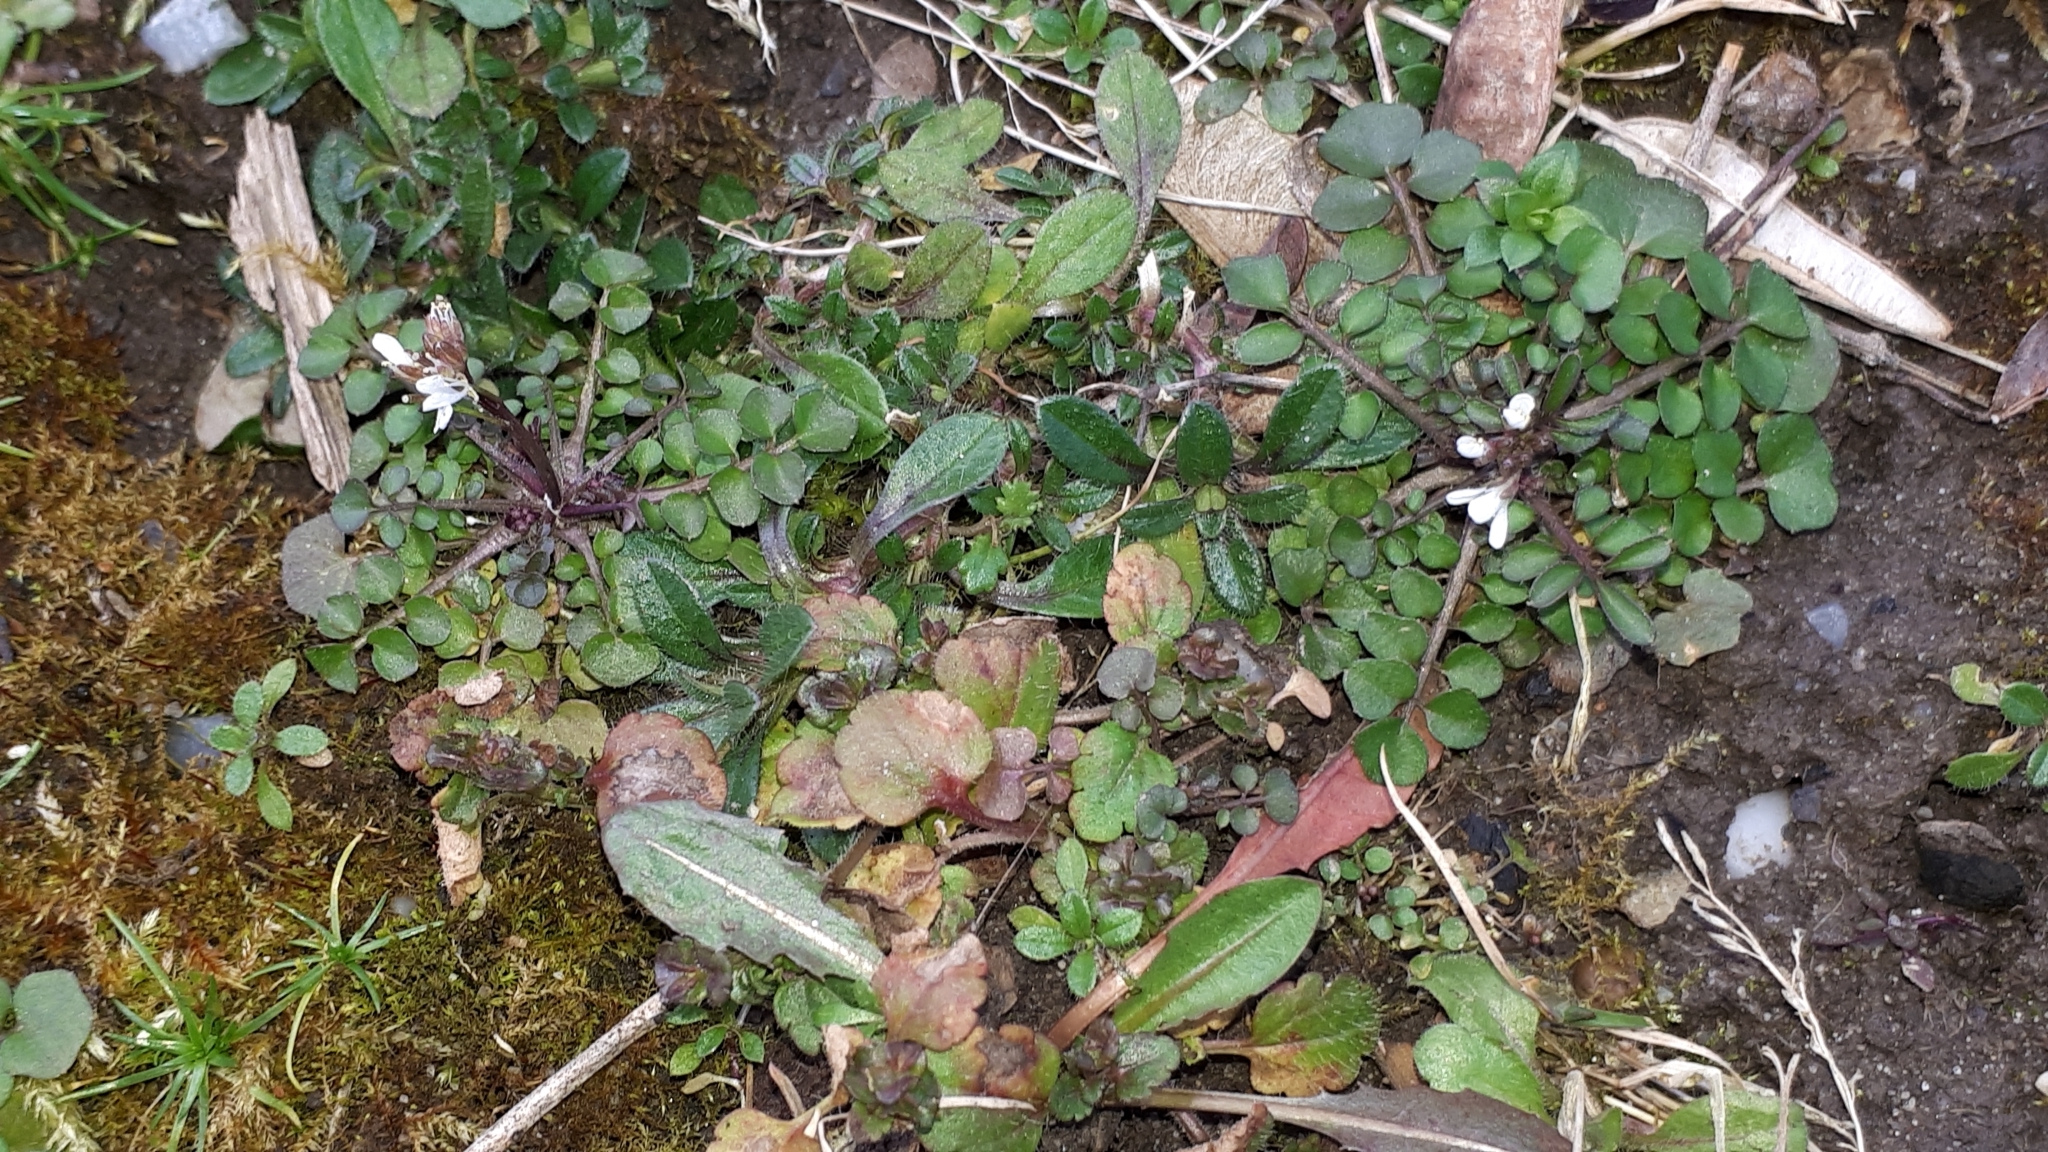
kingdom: Plantae
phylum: Tracheophyta
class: Magnoliopsida
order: Brassicales
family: Brassicaceae
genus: Cardamine
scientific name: Cardamine hirsuta
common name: Hairy bittercress
